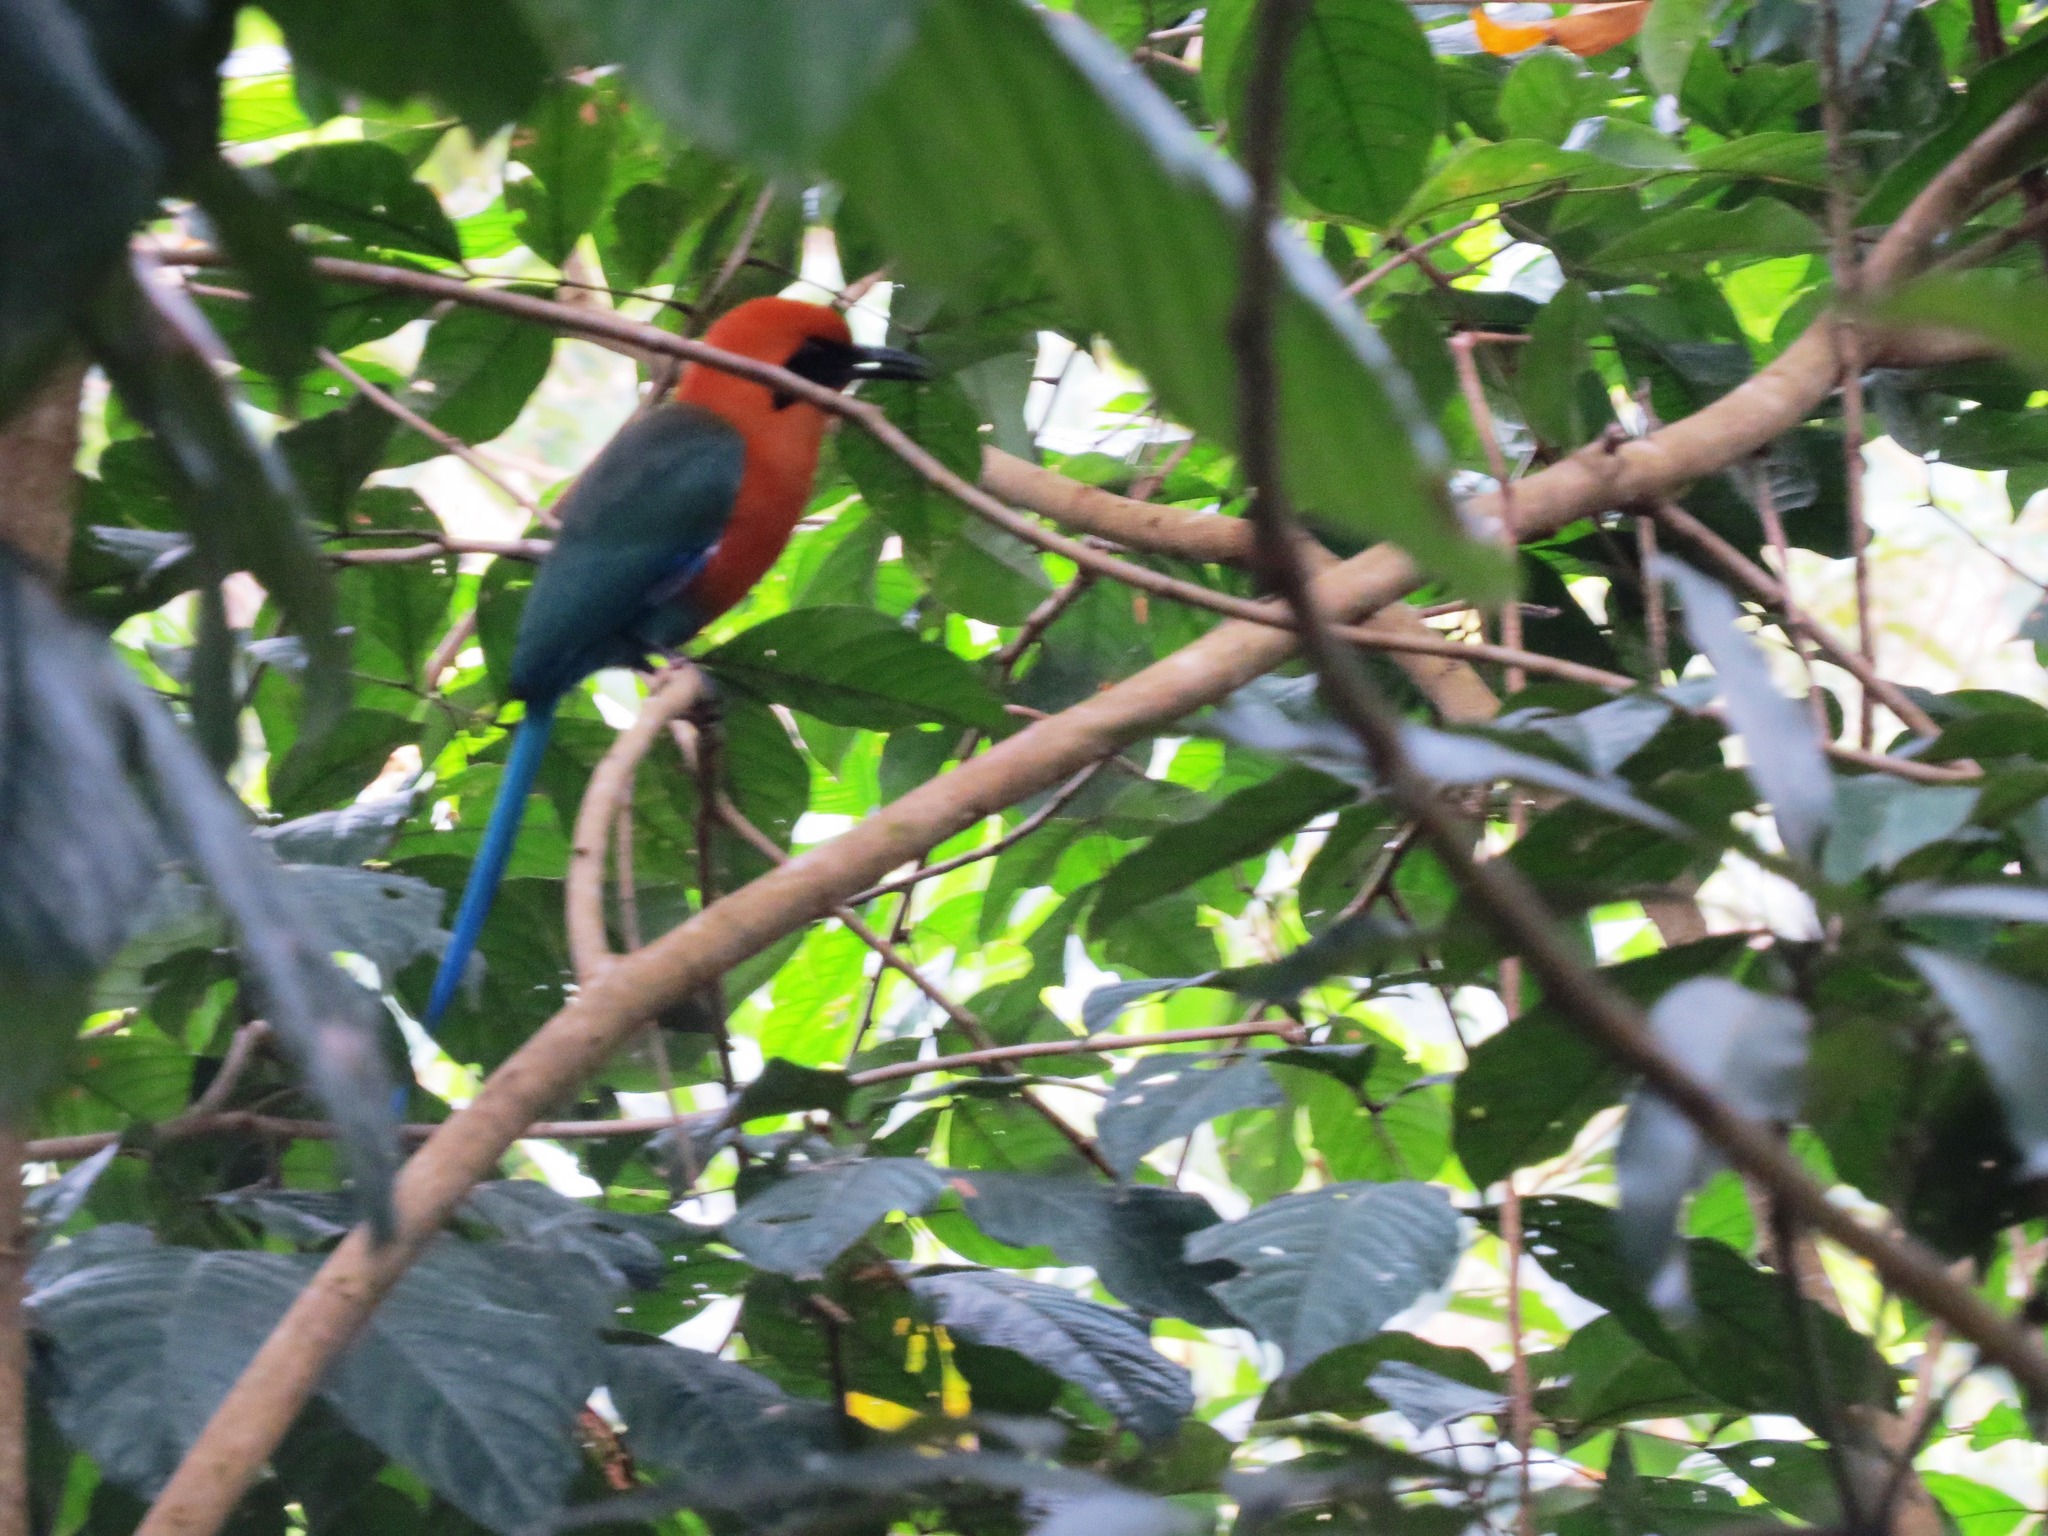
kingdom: Animalia
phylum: Chordata
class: Aves
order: Coraciiformes
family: Momotidae
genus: Baryphthengus
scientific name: Baryphthengus martii
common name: Rufous motmot
